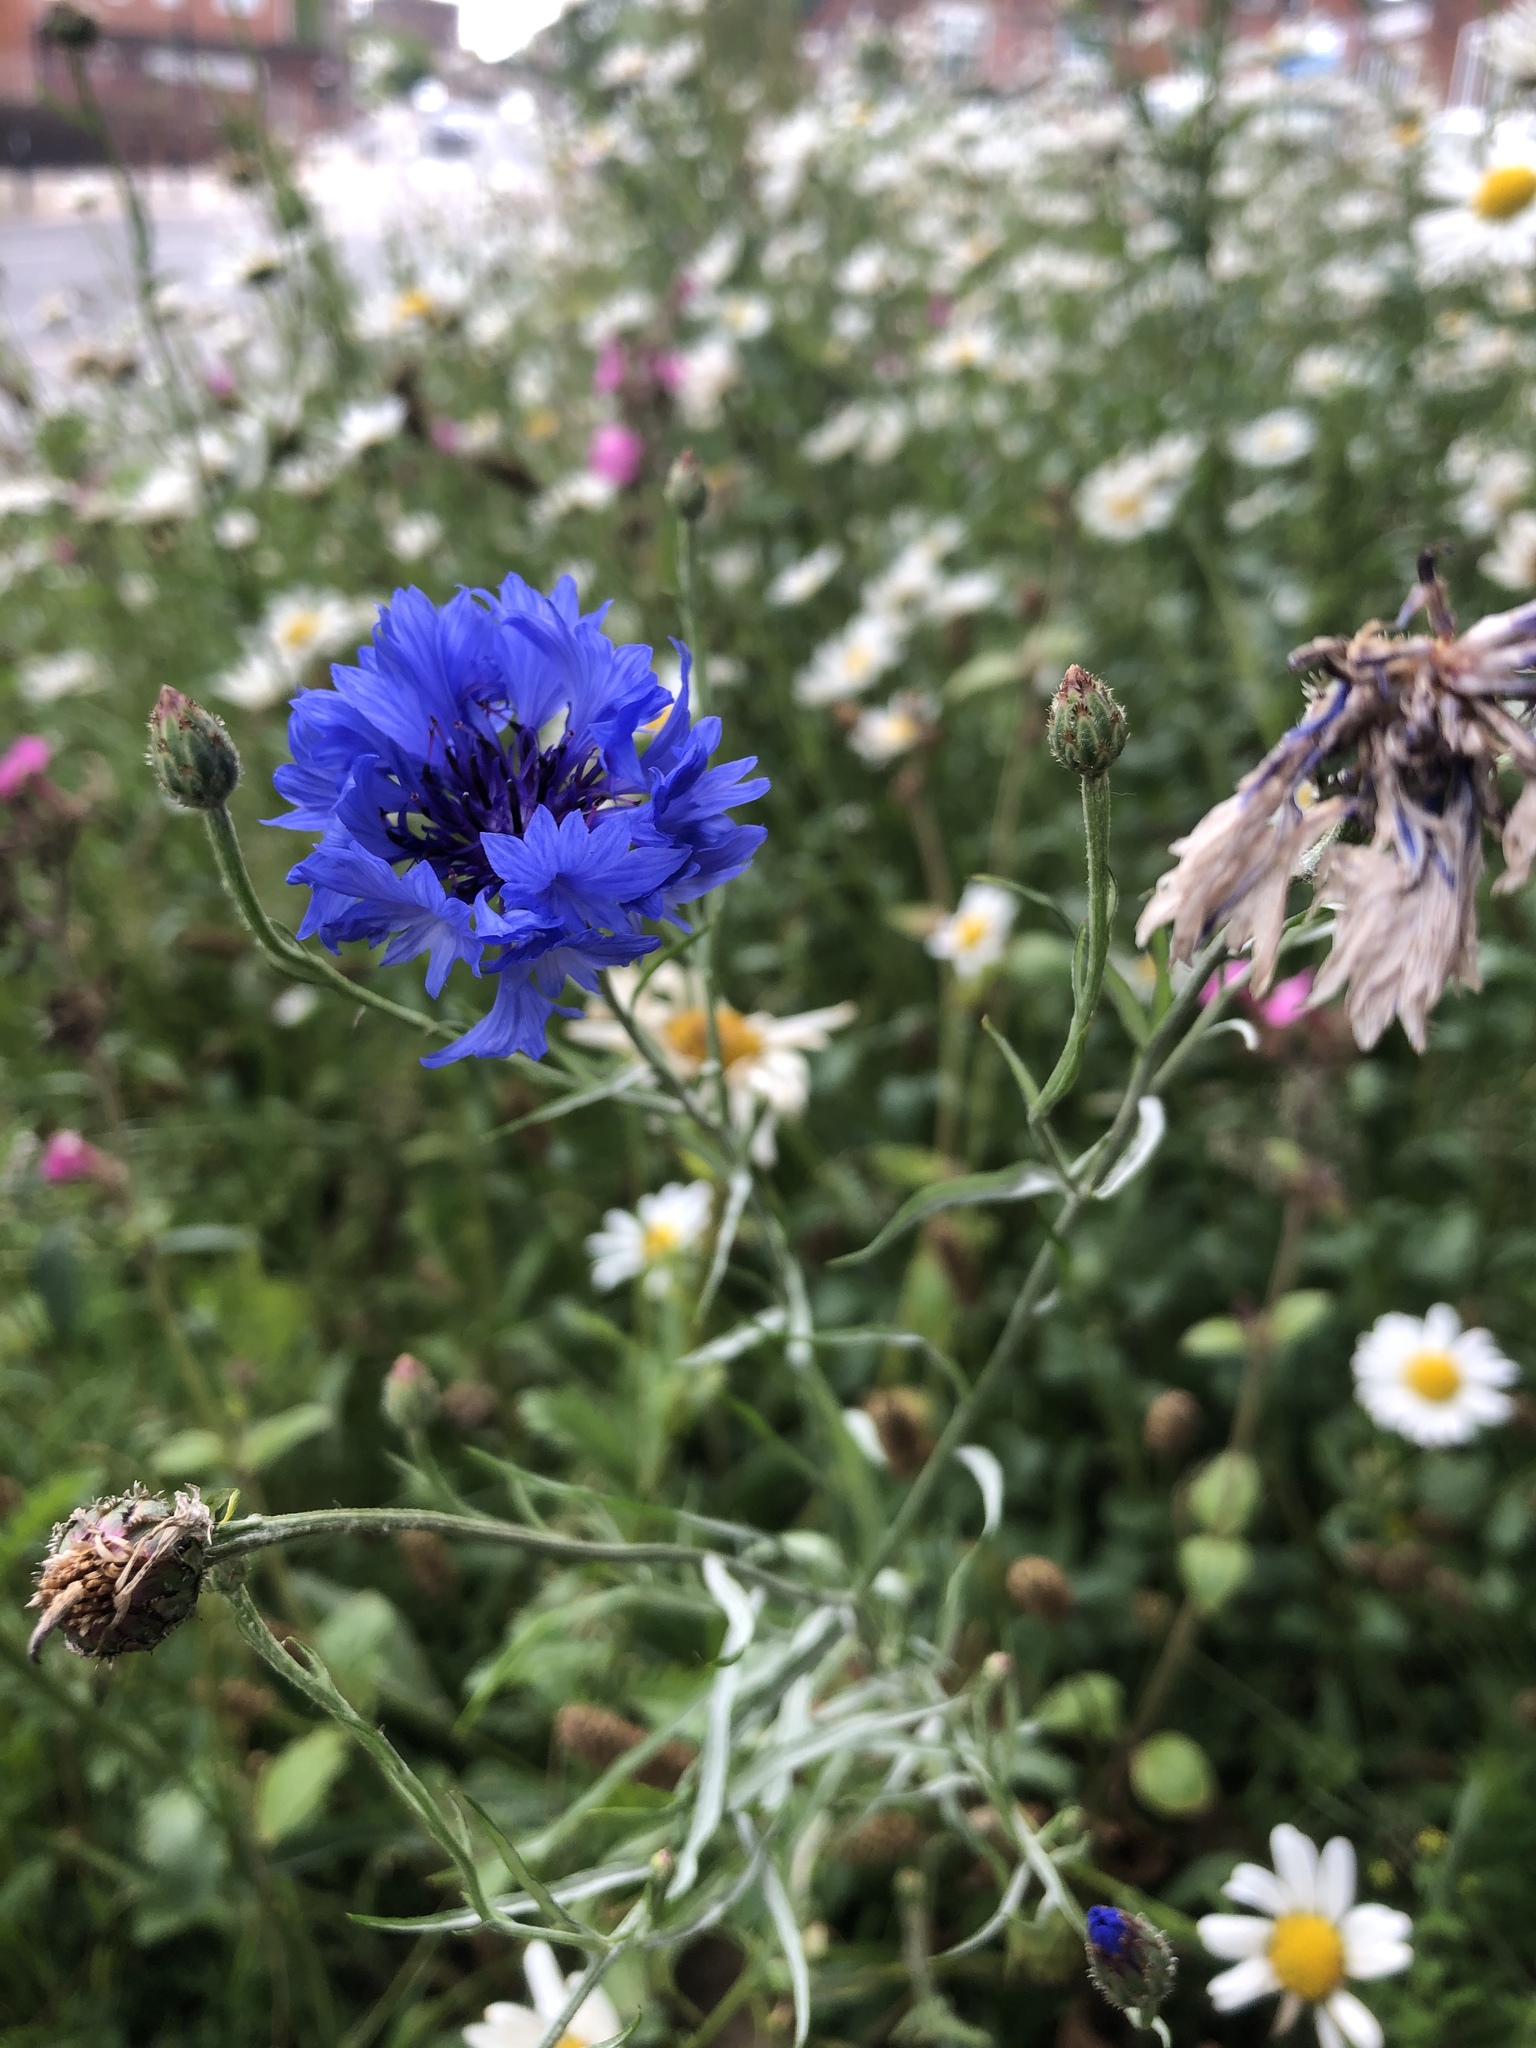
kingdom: Plantae
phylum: Tracheophyta
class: Magnoliopsida
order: Asterales
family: Asteraceae
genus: Centaurea
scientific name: Centaurea cyanus
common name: Cornflower
